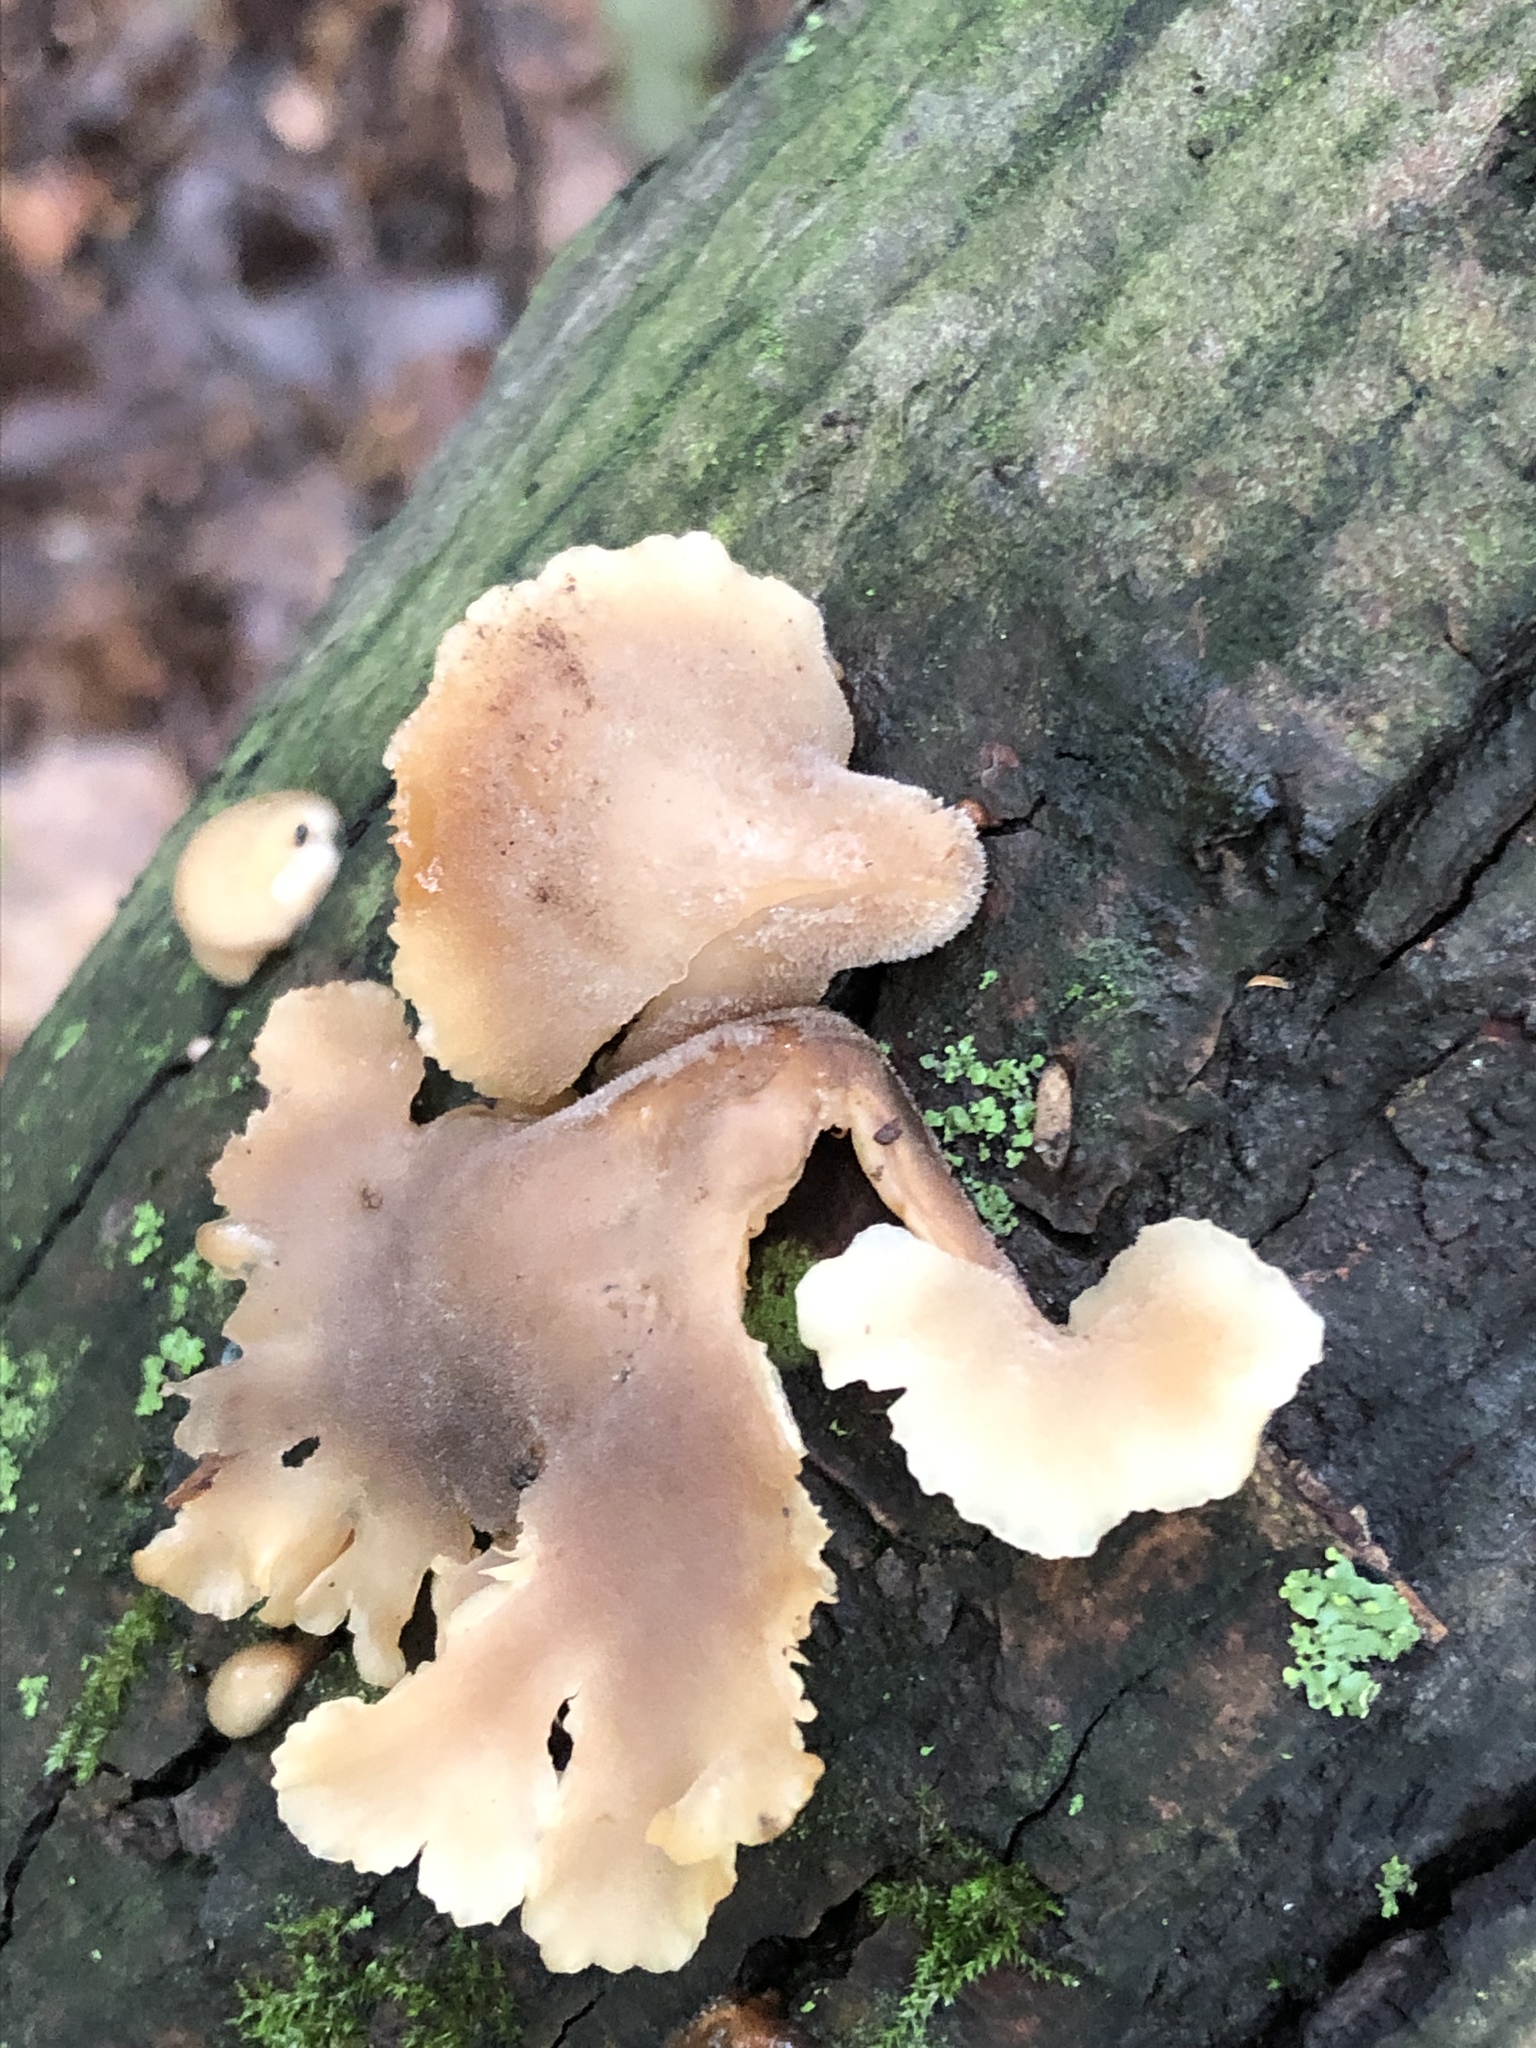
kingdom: Fungi
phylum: Basidiomycota
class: Agaricomycetes
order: Russulales
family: Auriscalpiaceae
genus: Lentinellus
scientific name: Lentinellus ursinus
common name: Bear lentinus
